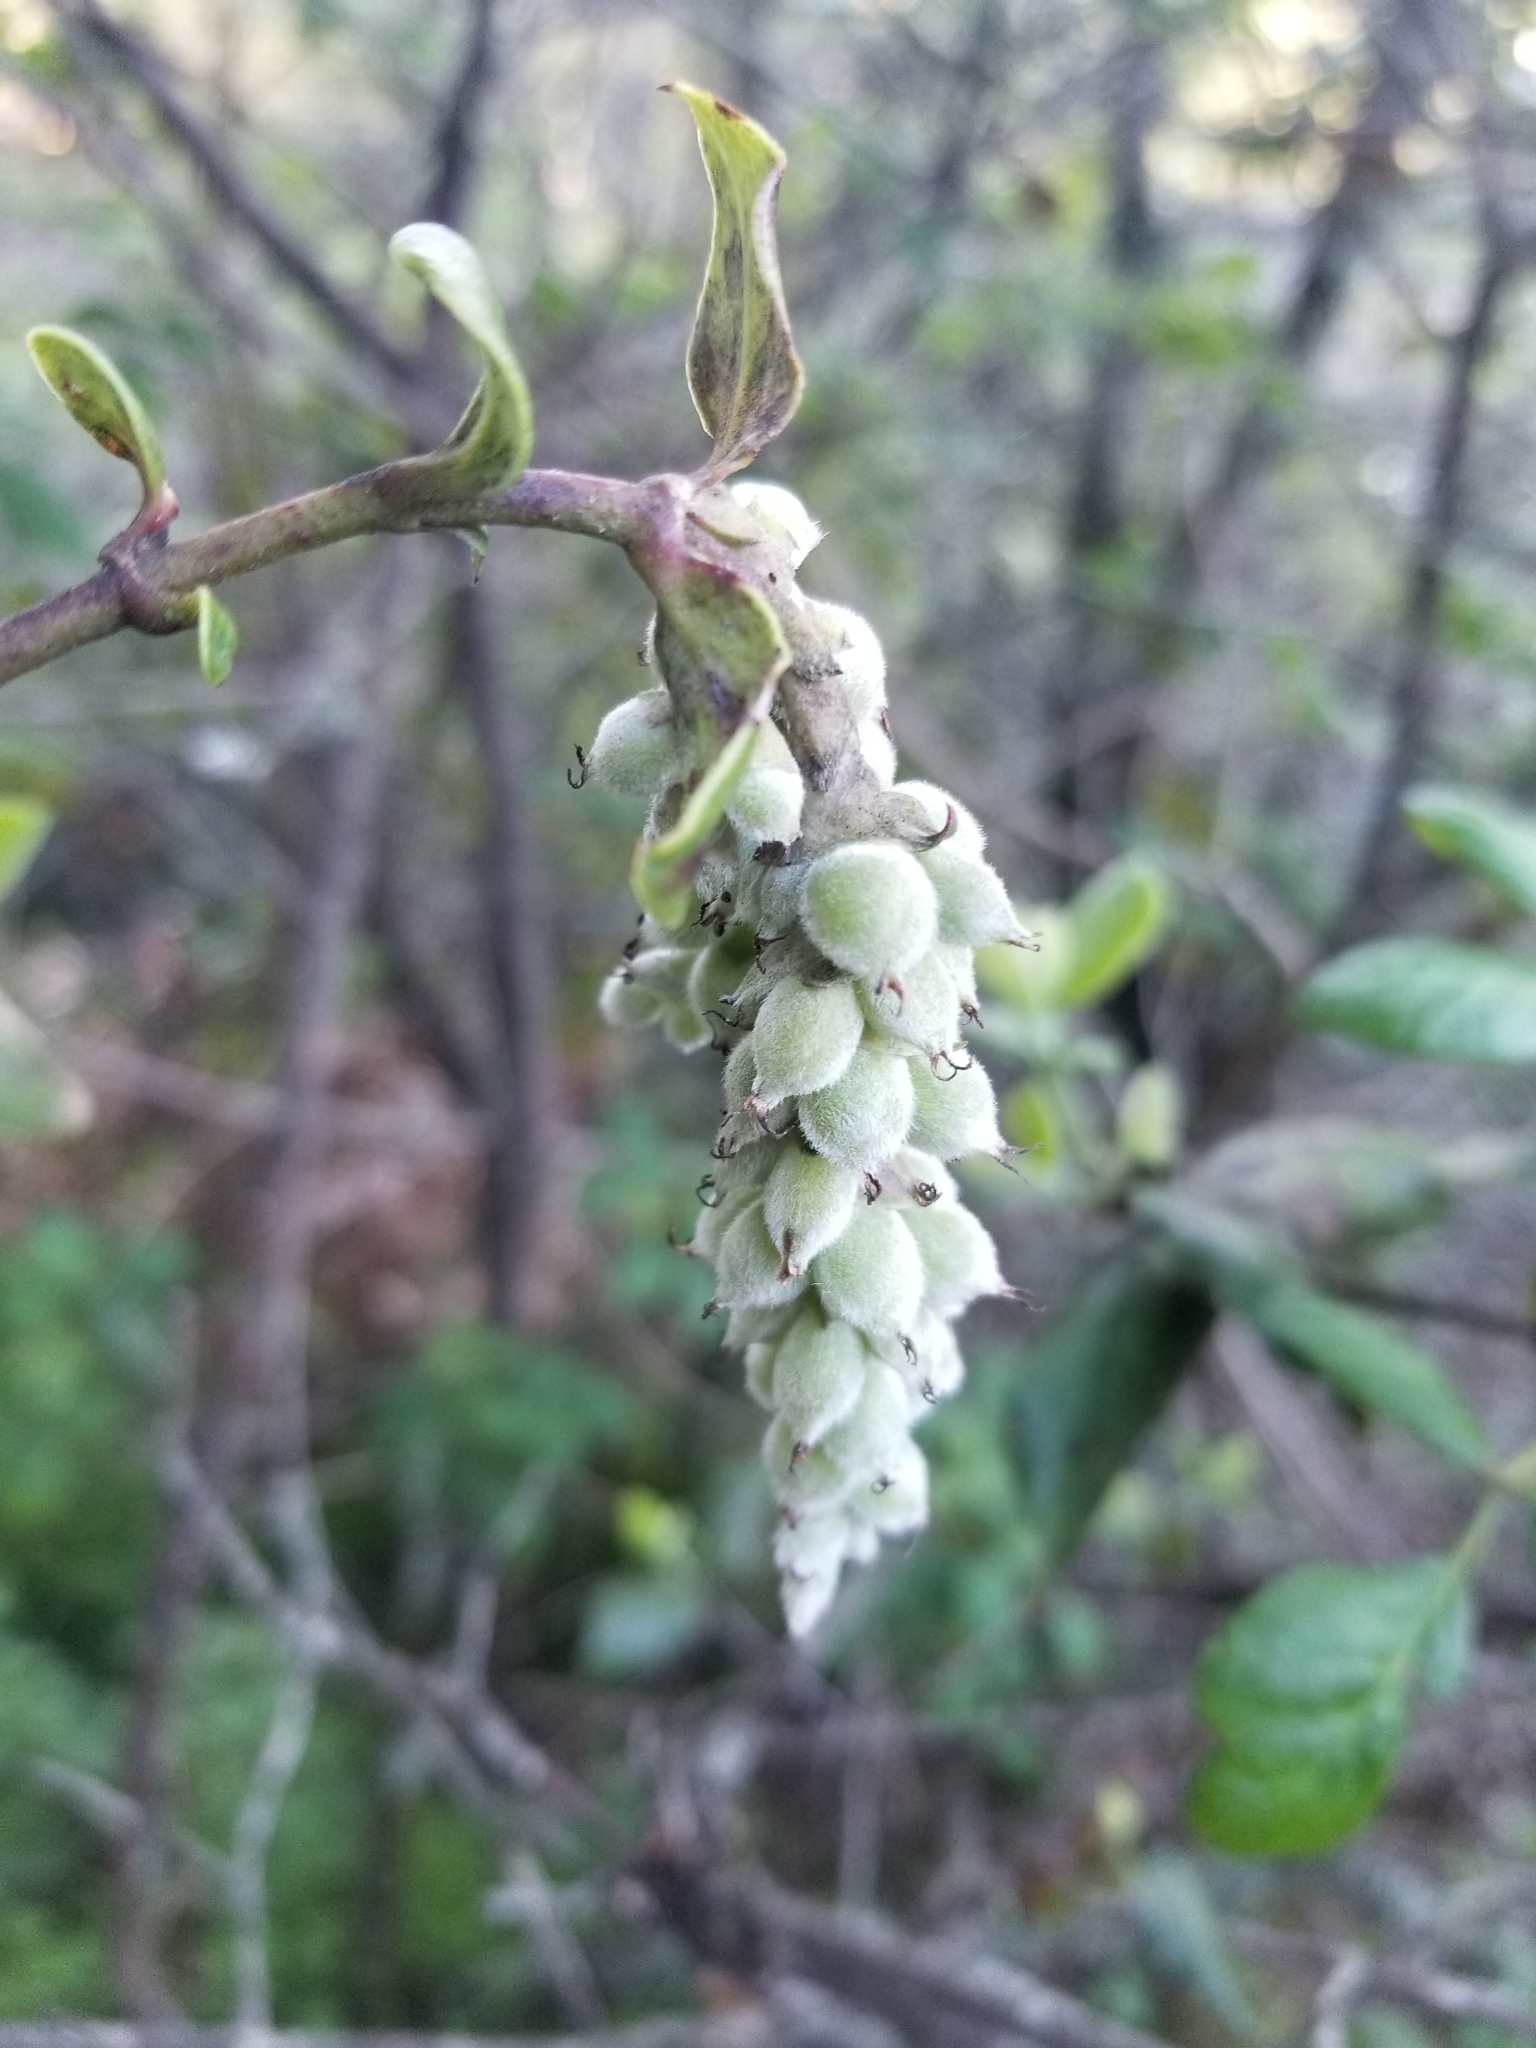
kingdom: Plantae
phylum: Tracheophyta
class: Magnoliopsida
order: Garryales
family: Garryaceae
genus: Garrya
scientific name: Garrya elliptica
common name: Silk-tassel
